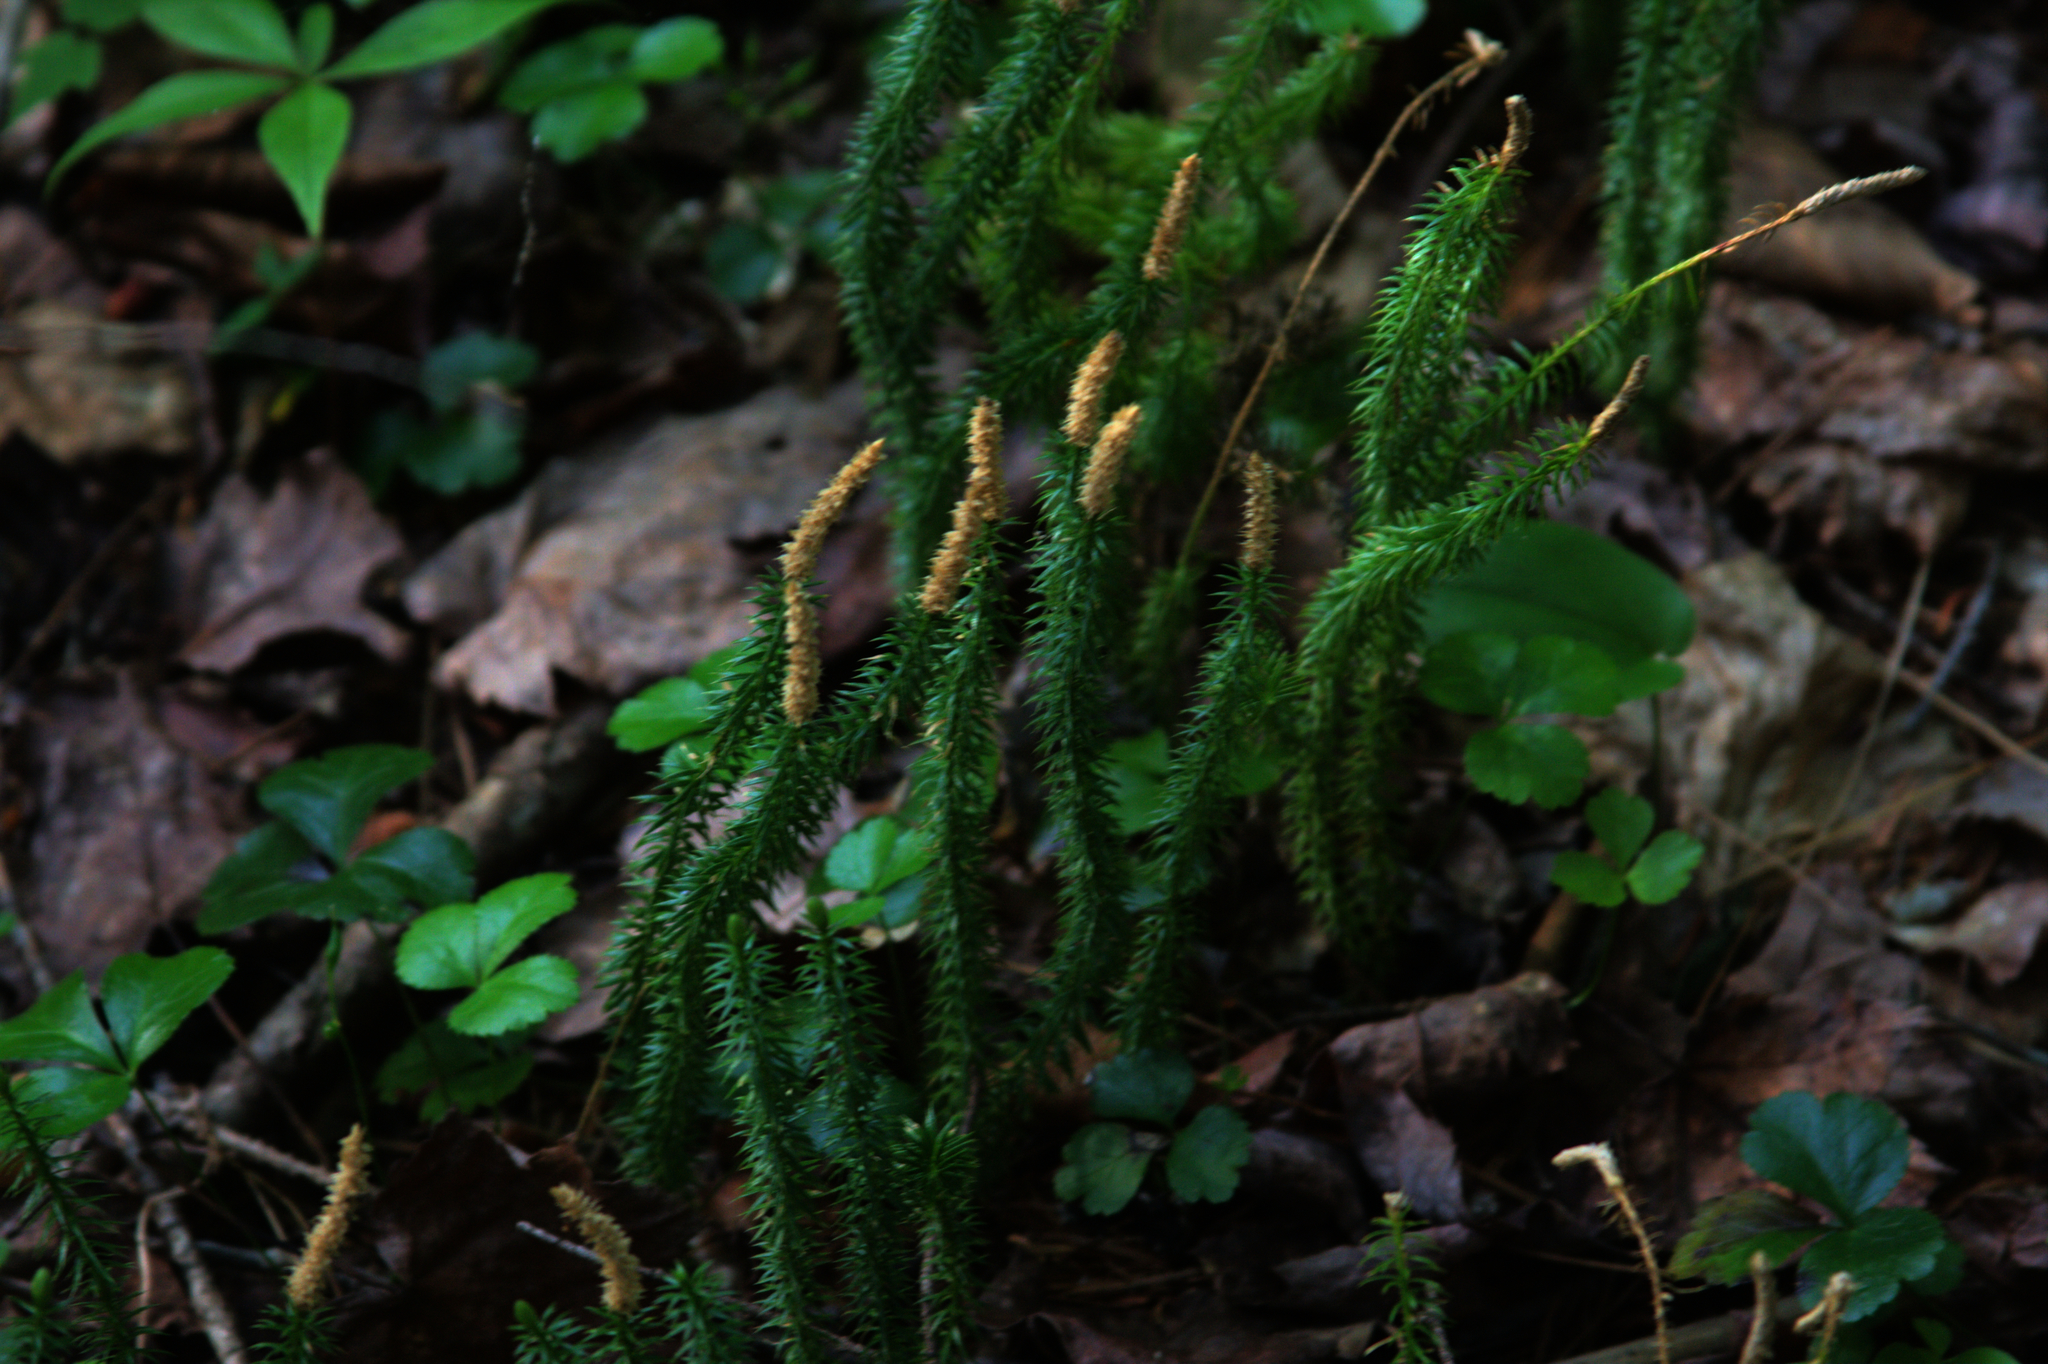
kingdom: Plantae
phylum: Tracheophyta
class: Lycopodiopsida
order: Lycopodiales
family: Lycopodiaceae
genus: Spinulum
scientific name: Spinulum annotinum
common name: Interrupted club-moss
